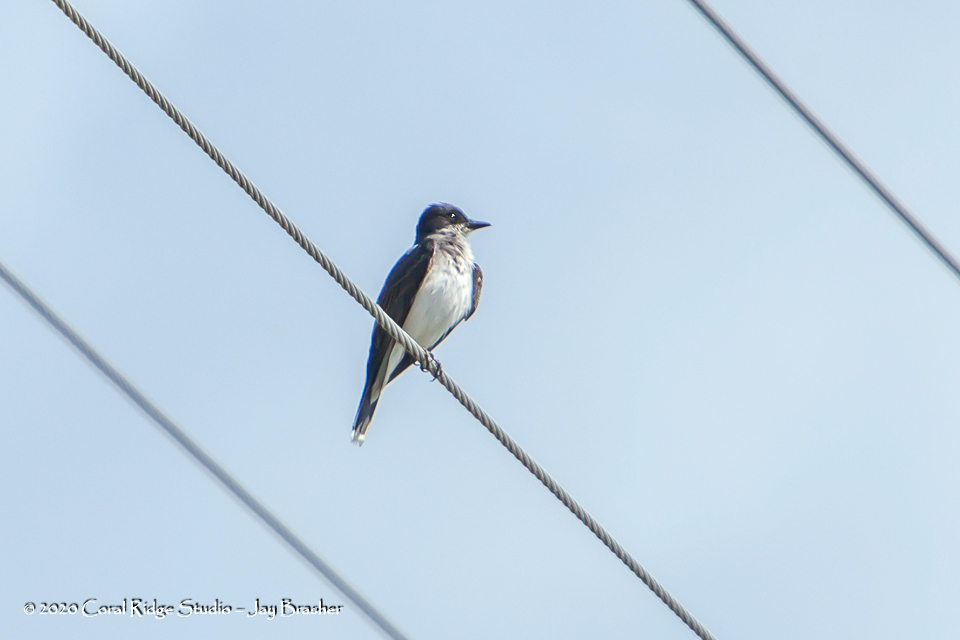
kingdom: Animalia
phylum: Chordata
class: Aves
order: Passeriformes
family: Tyrannidae
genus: Tyrannus
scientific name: Tyrannus tyrannus
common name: Eastern kingbird
